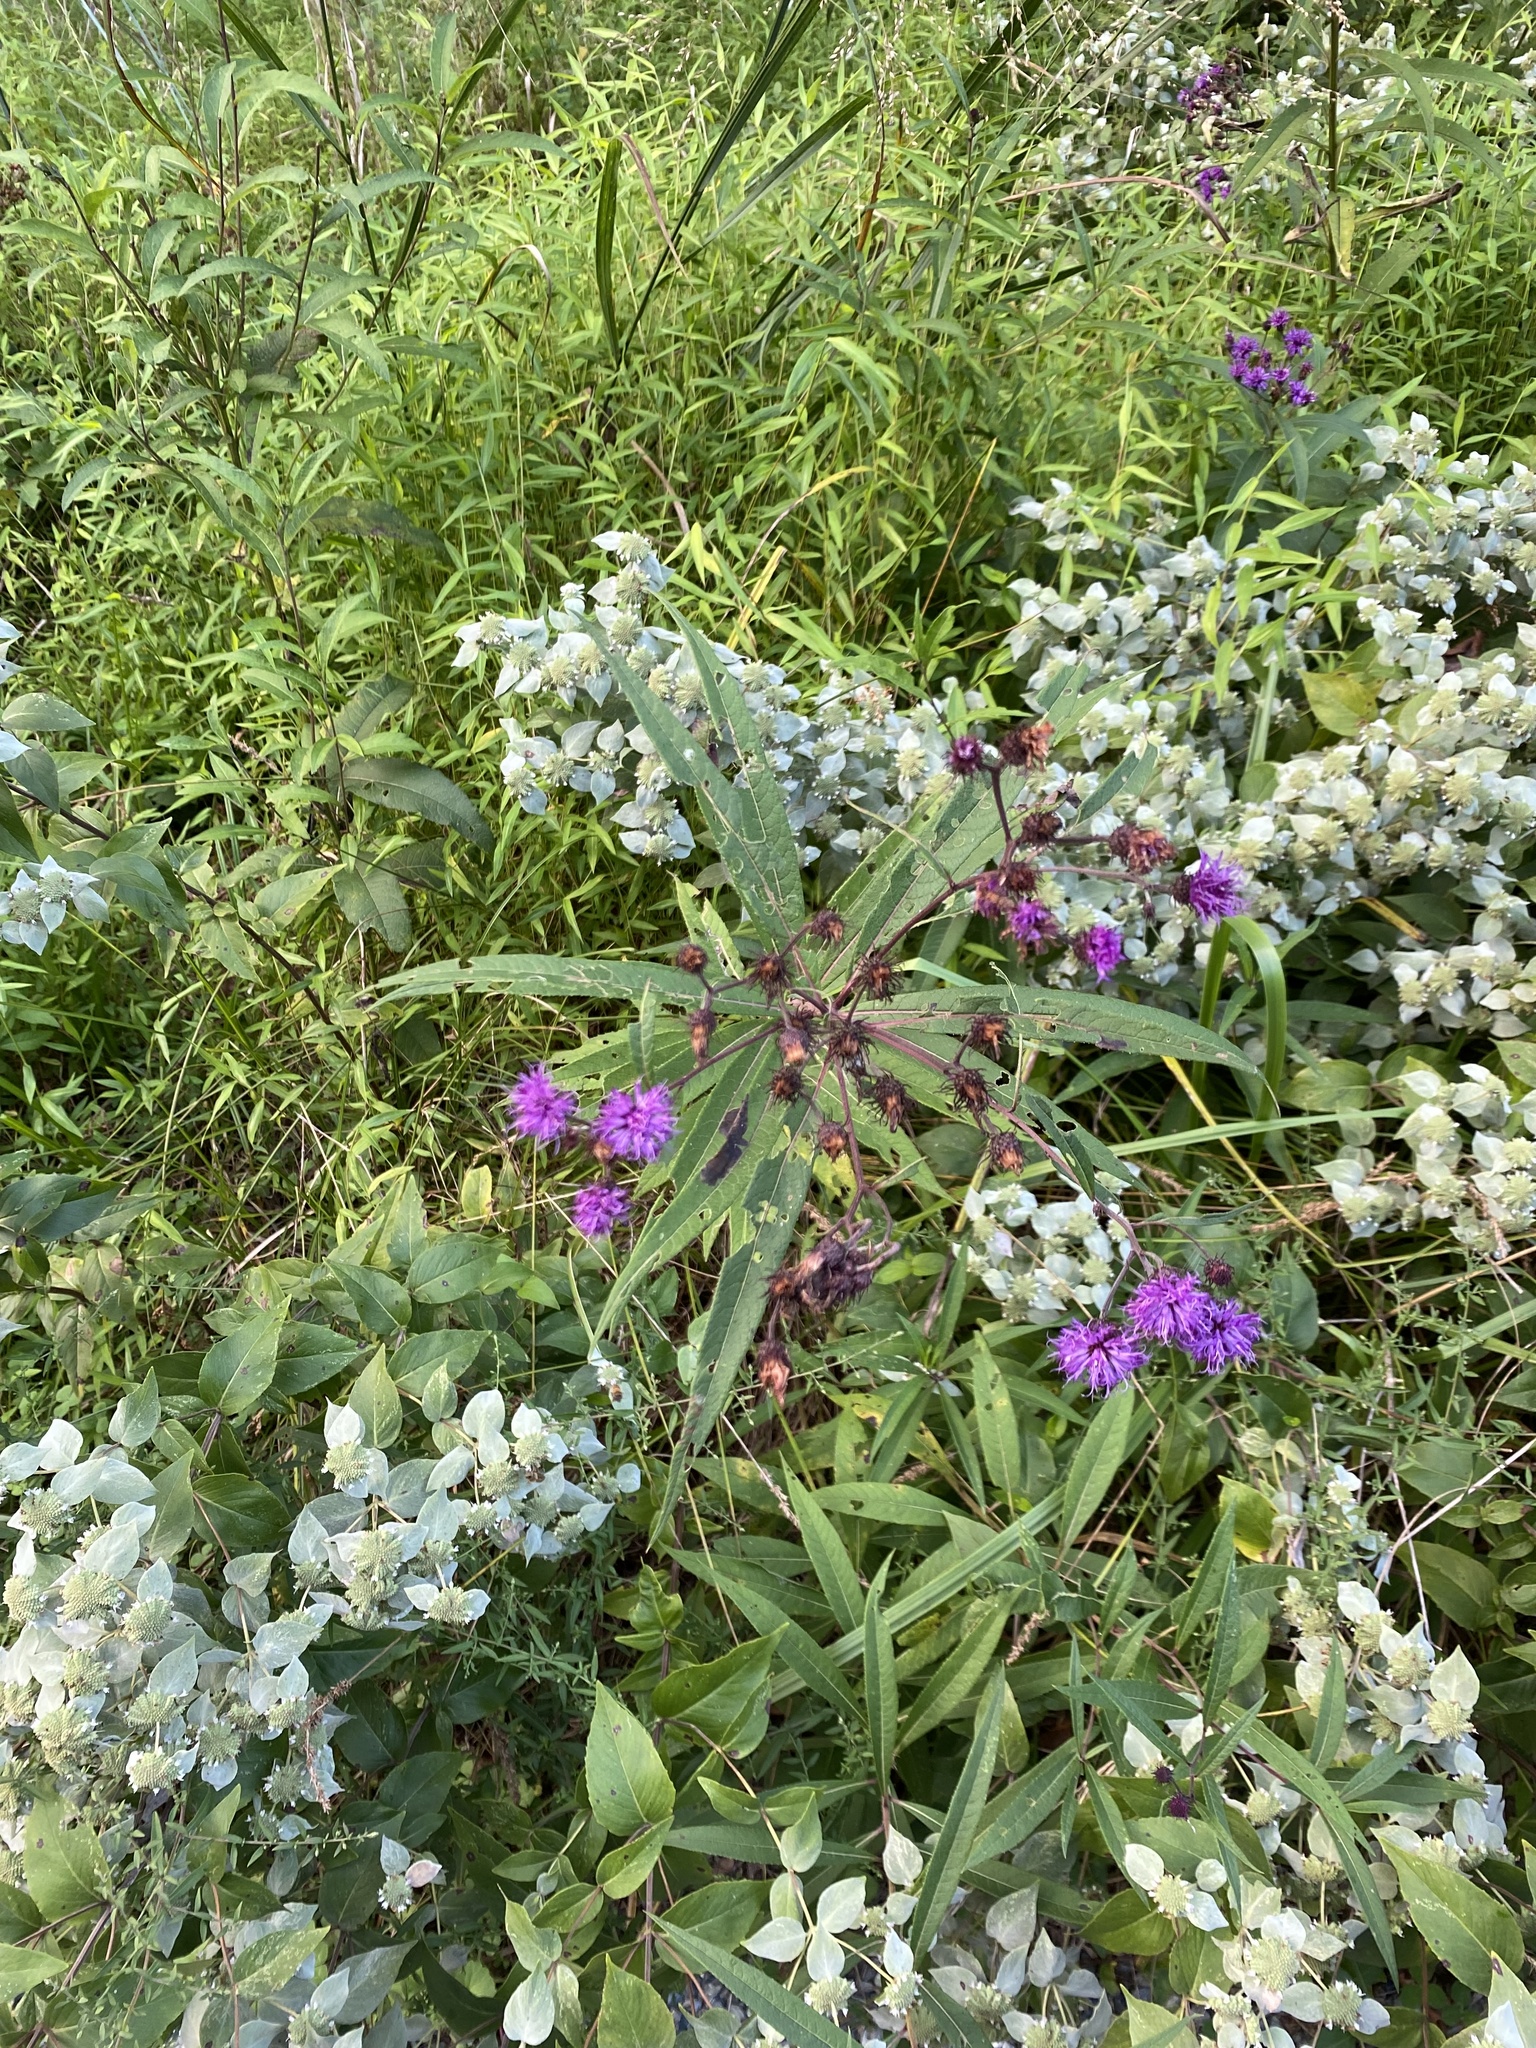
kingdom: Plantae
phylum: Tracheophyta
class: Magnoliopsida
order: Asterales
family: Asteraceae
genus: Vernonia
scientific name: Vernonia noveboracensis
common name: New york ironweed
